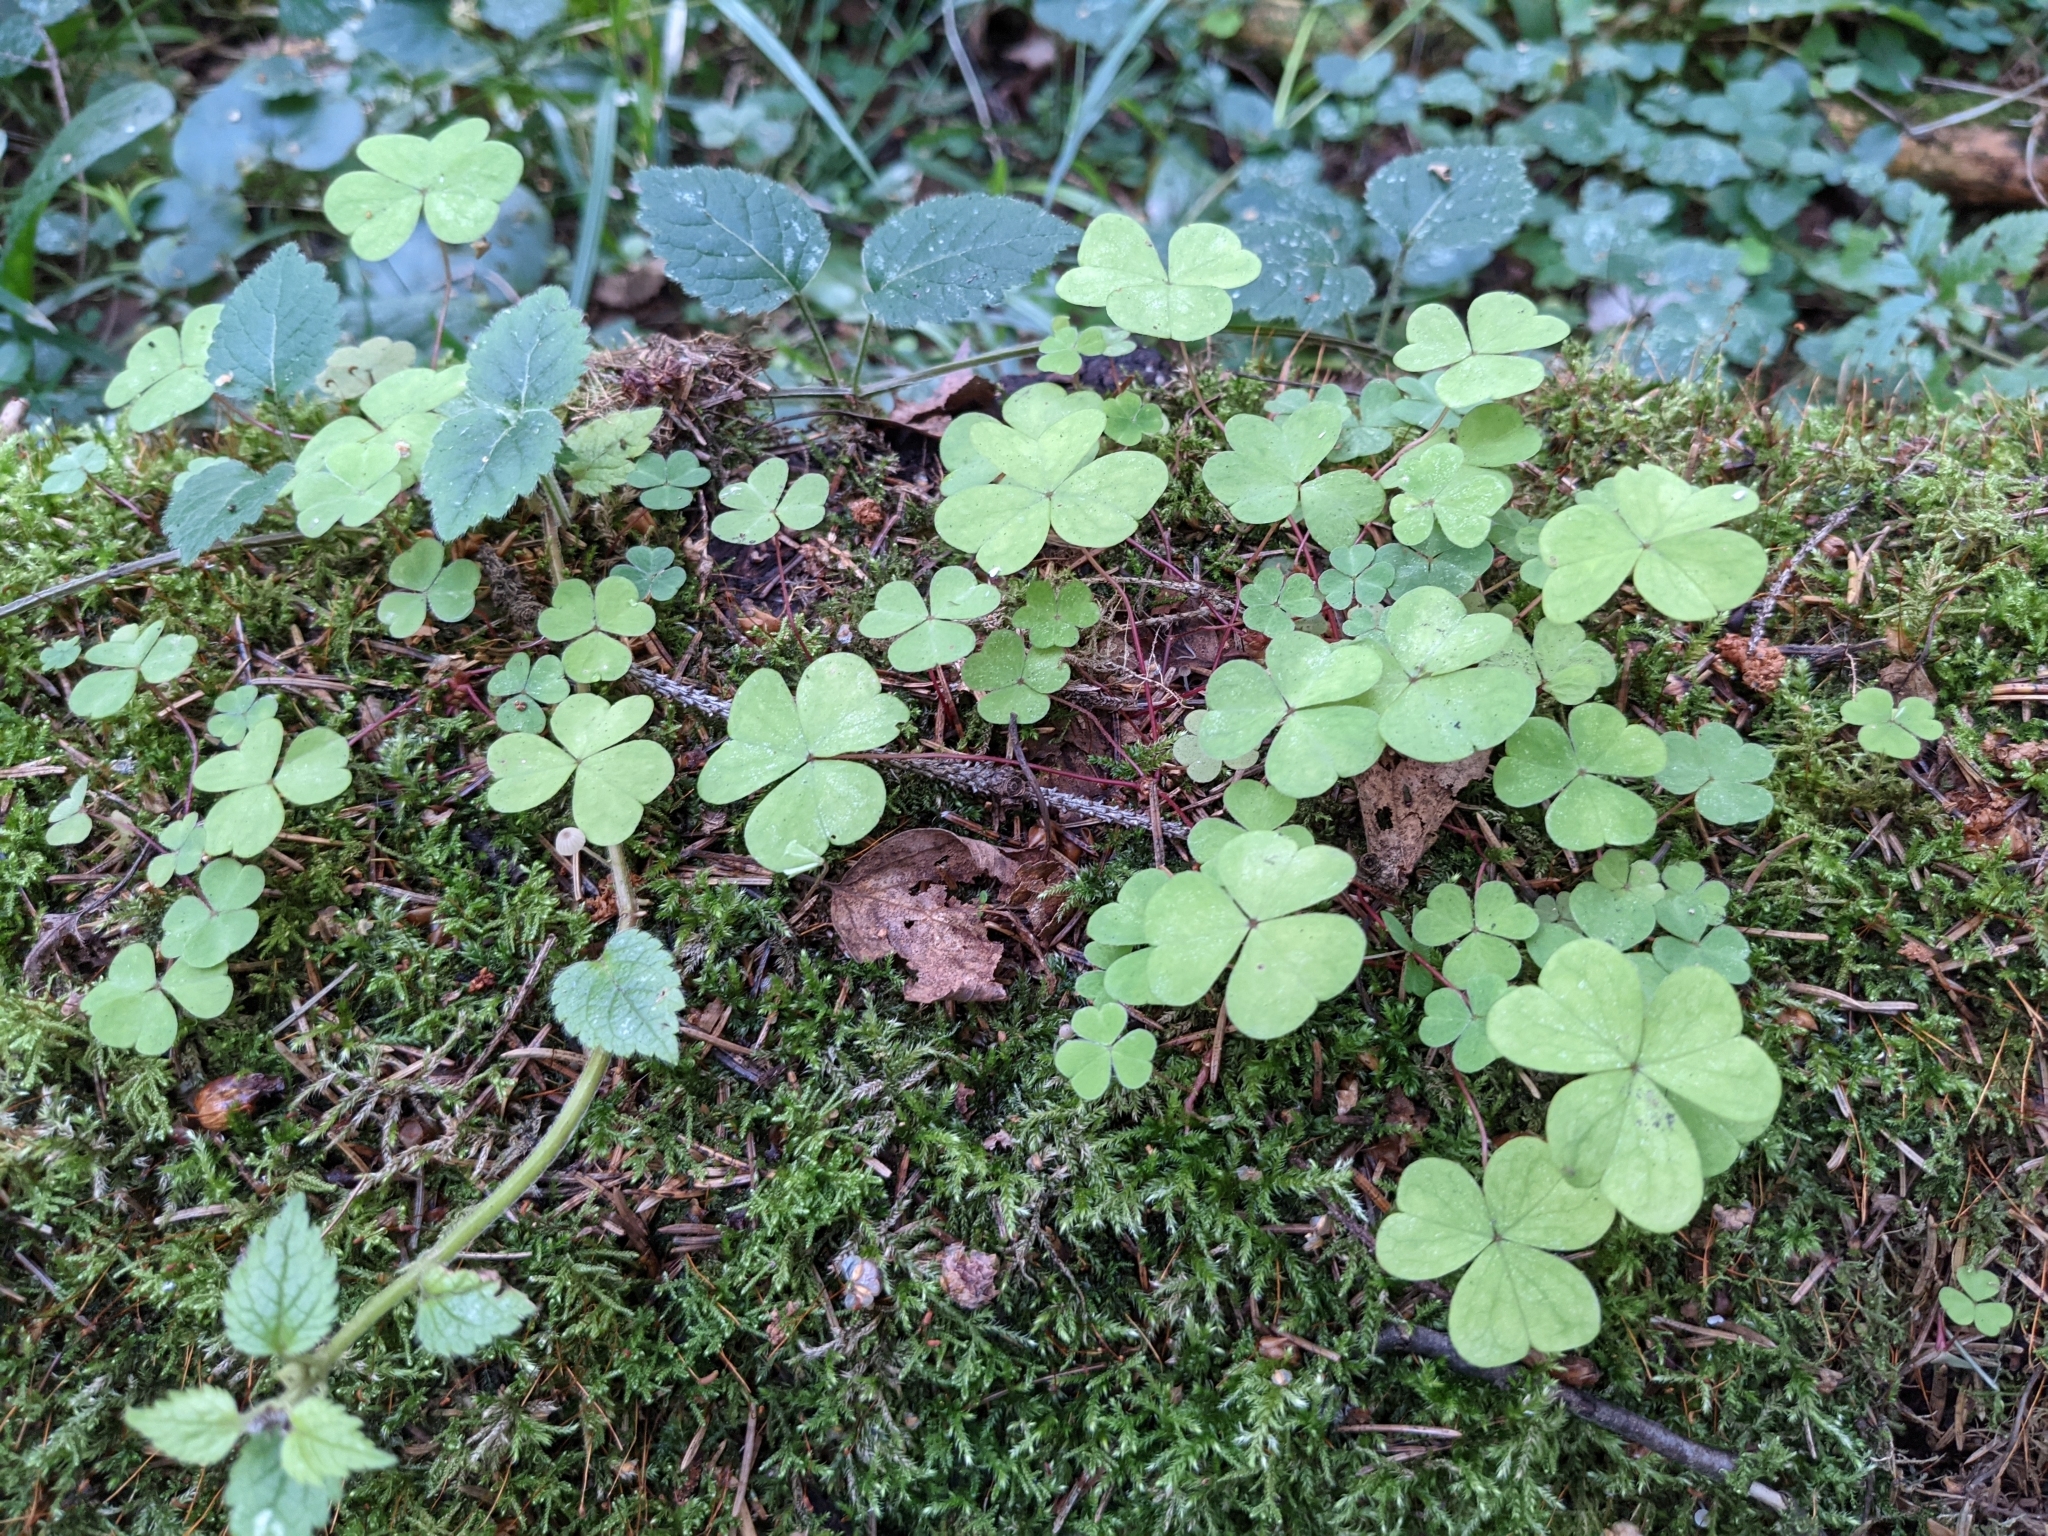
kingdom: Plantae
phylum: Tracheophyta
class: Magnoliopsida
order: Oxalidales
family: Oxalidaceae
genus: Oxalis
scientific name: Oxalis acetosella
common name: Wood-sorrel
